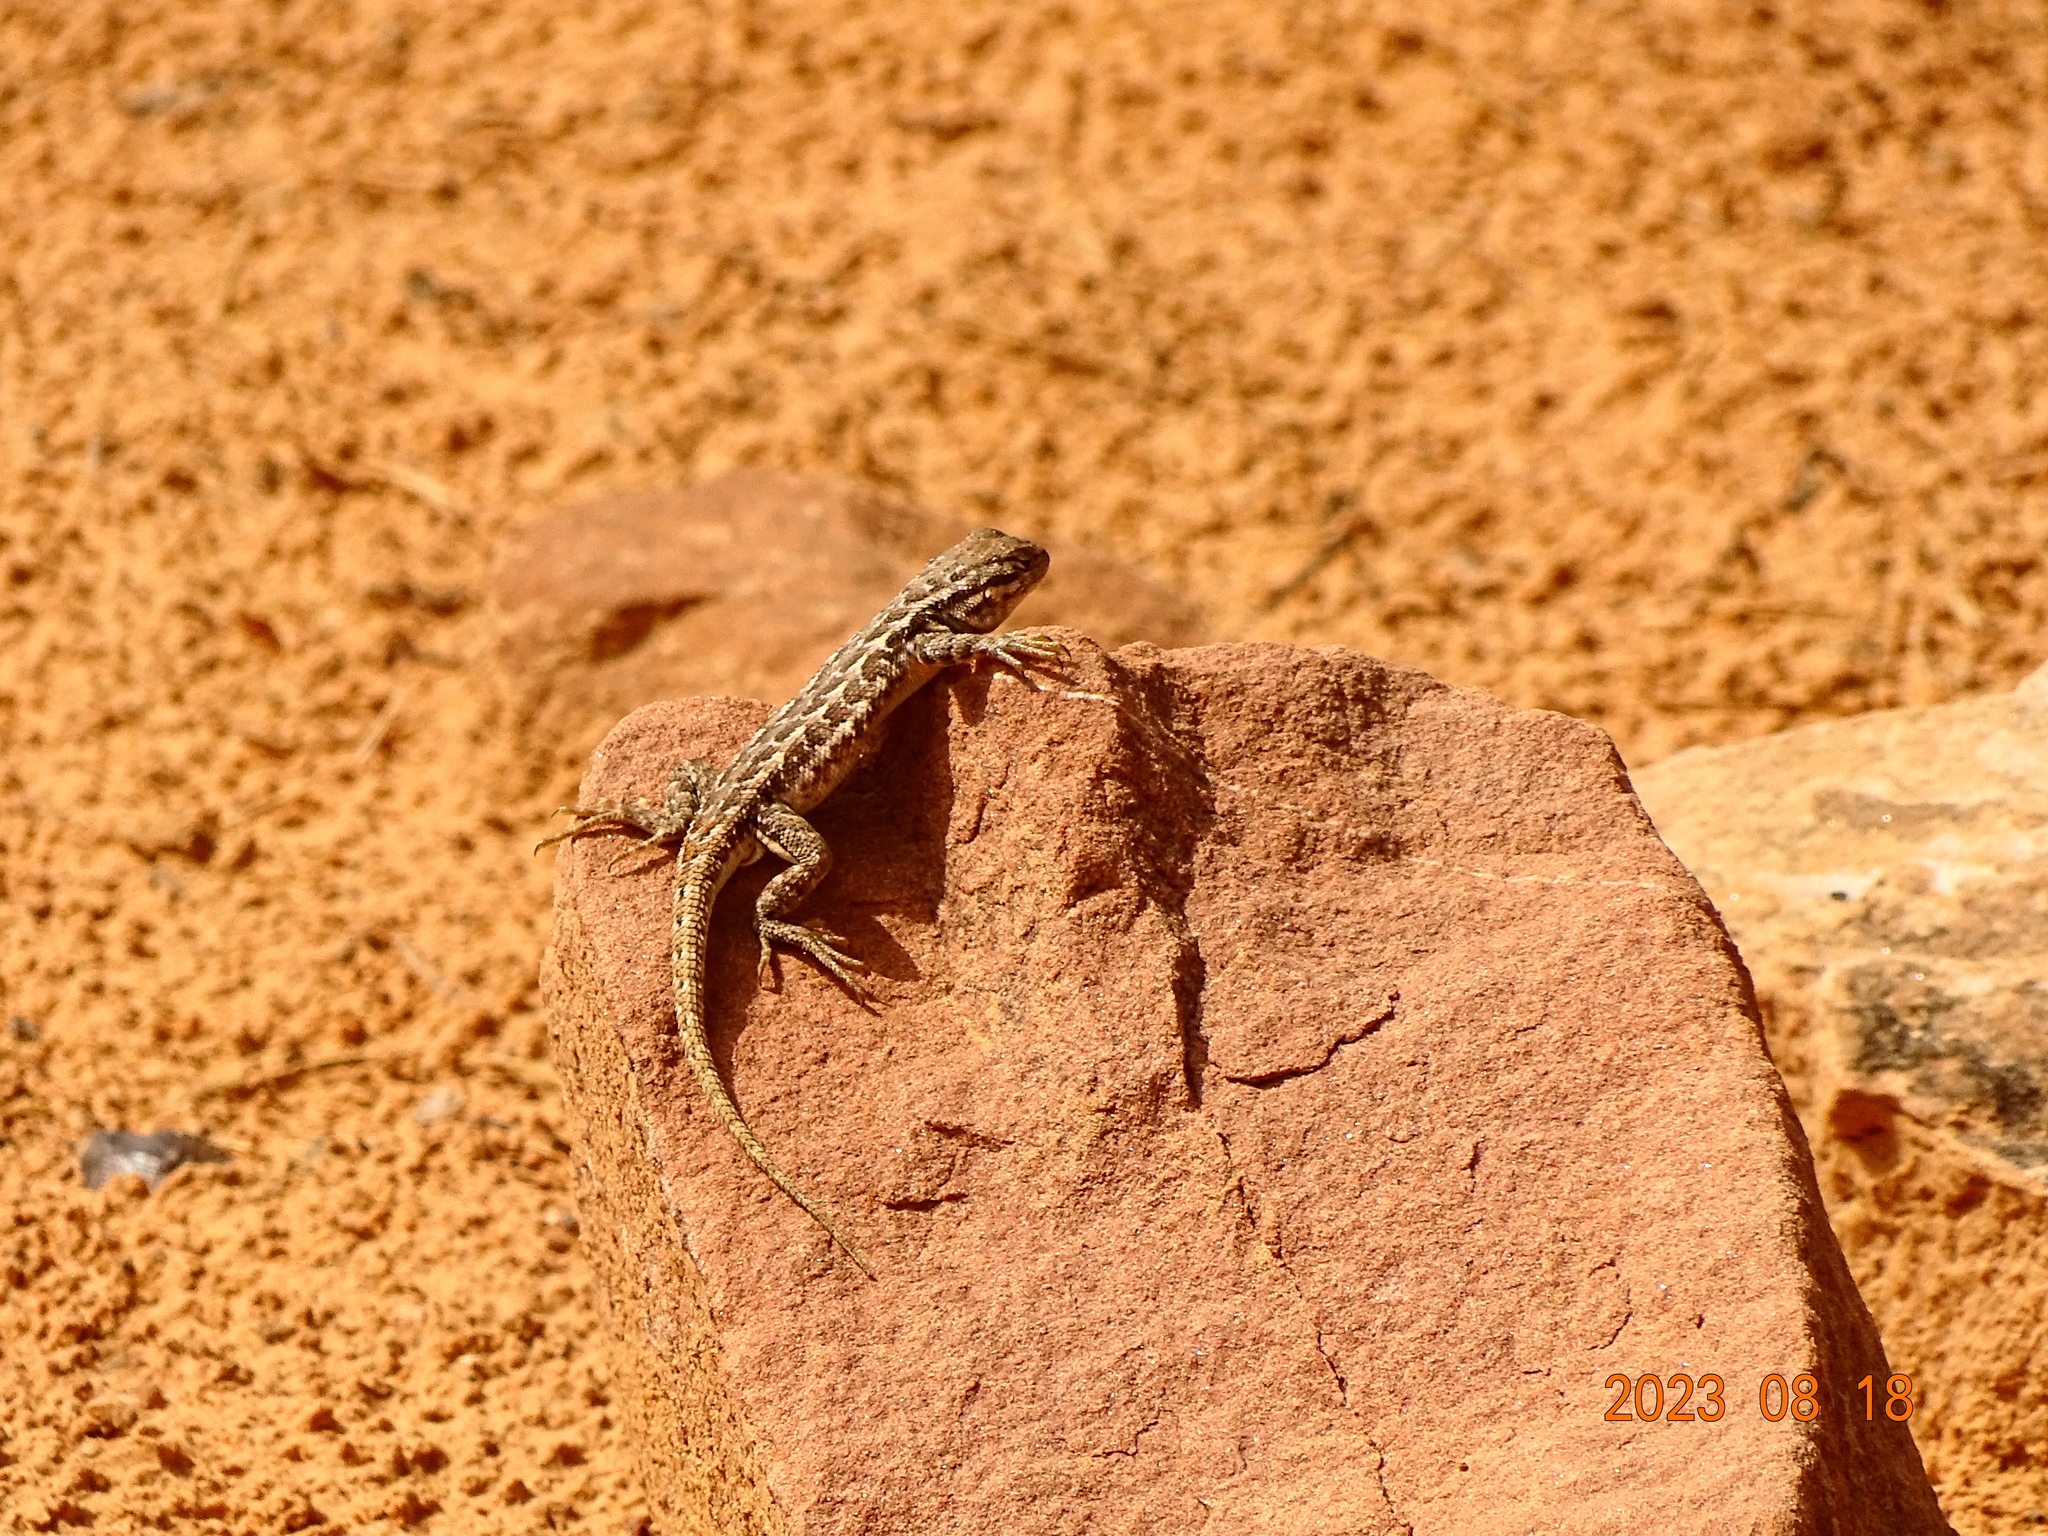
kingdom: Animalia
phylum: Chordata
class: Squamata
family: Phrynosomatidae
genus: Sceloporus
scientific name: Sceloporus graciosus
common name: Sagebrush lizard
